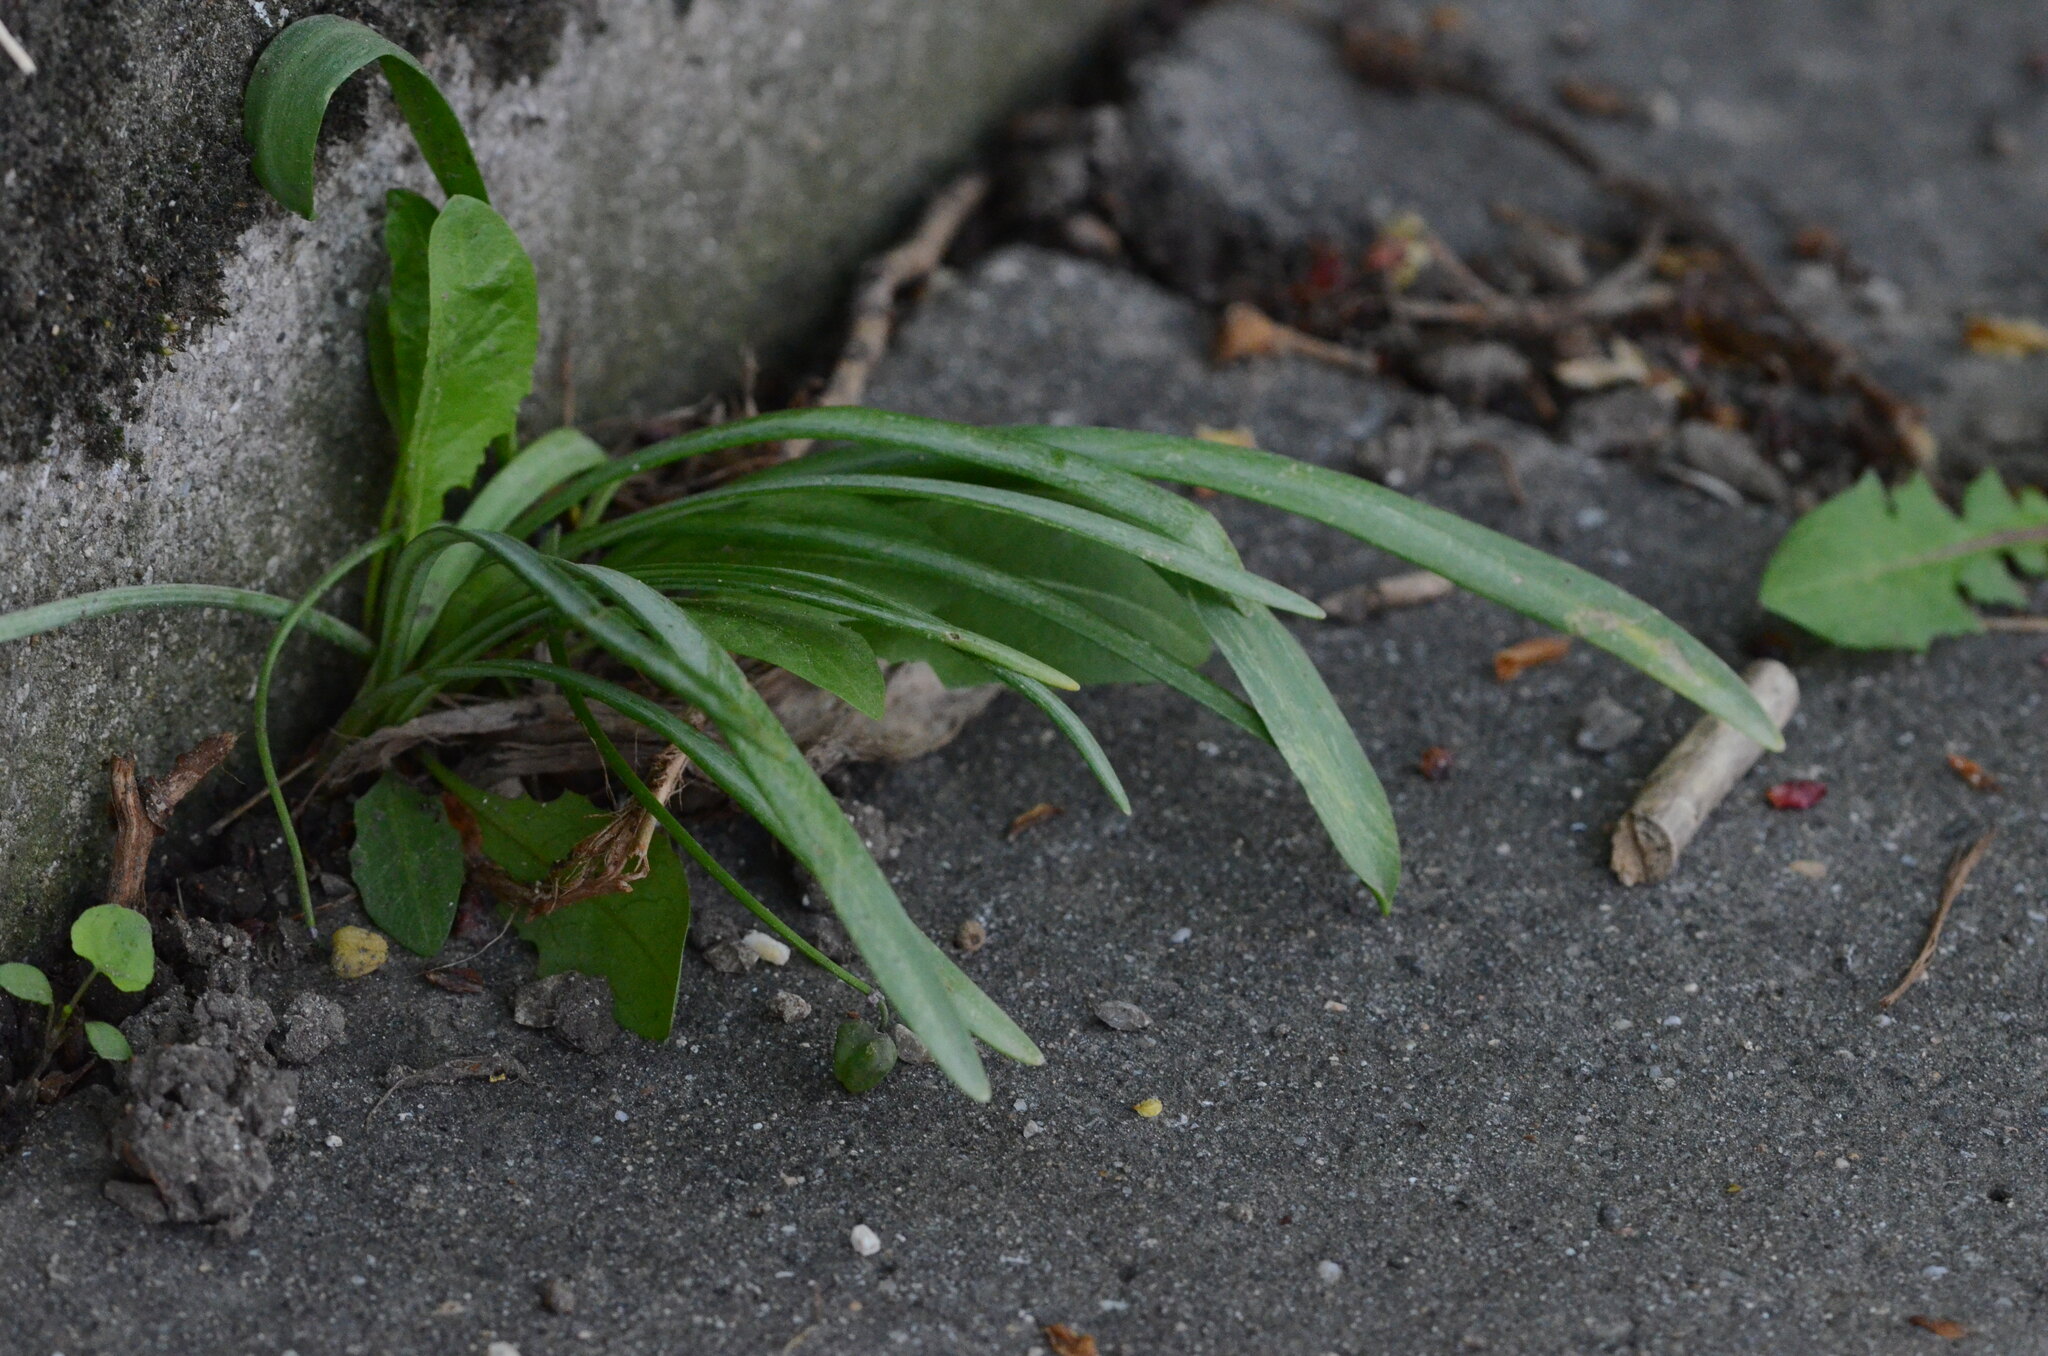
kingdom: Plantae
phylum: Tracheophyta
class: Liliopsida
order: Asparagales
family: Amaryllidaceae
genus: Galanthus
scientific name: Galanthus nivalis
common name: Snowdrop
